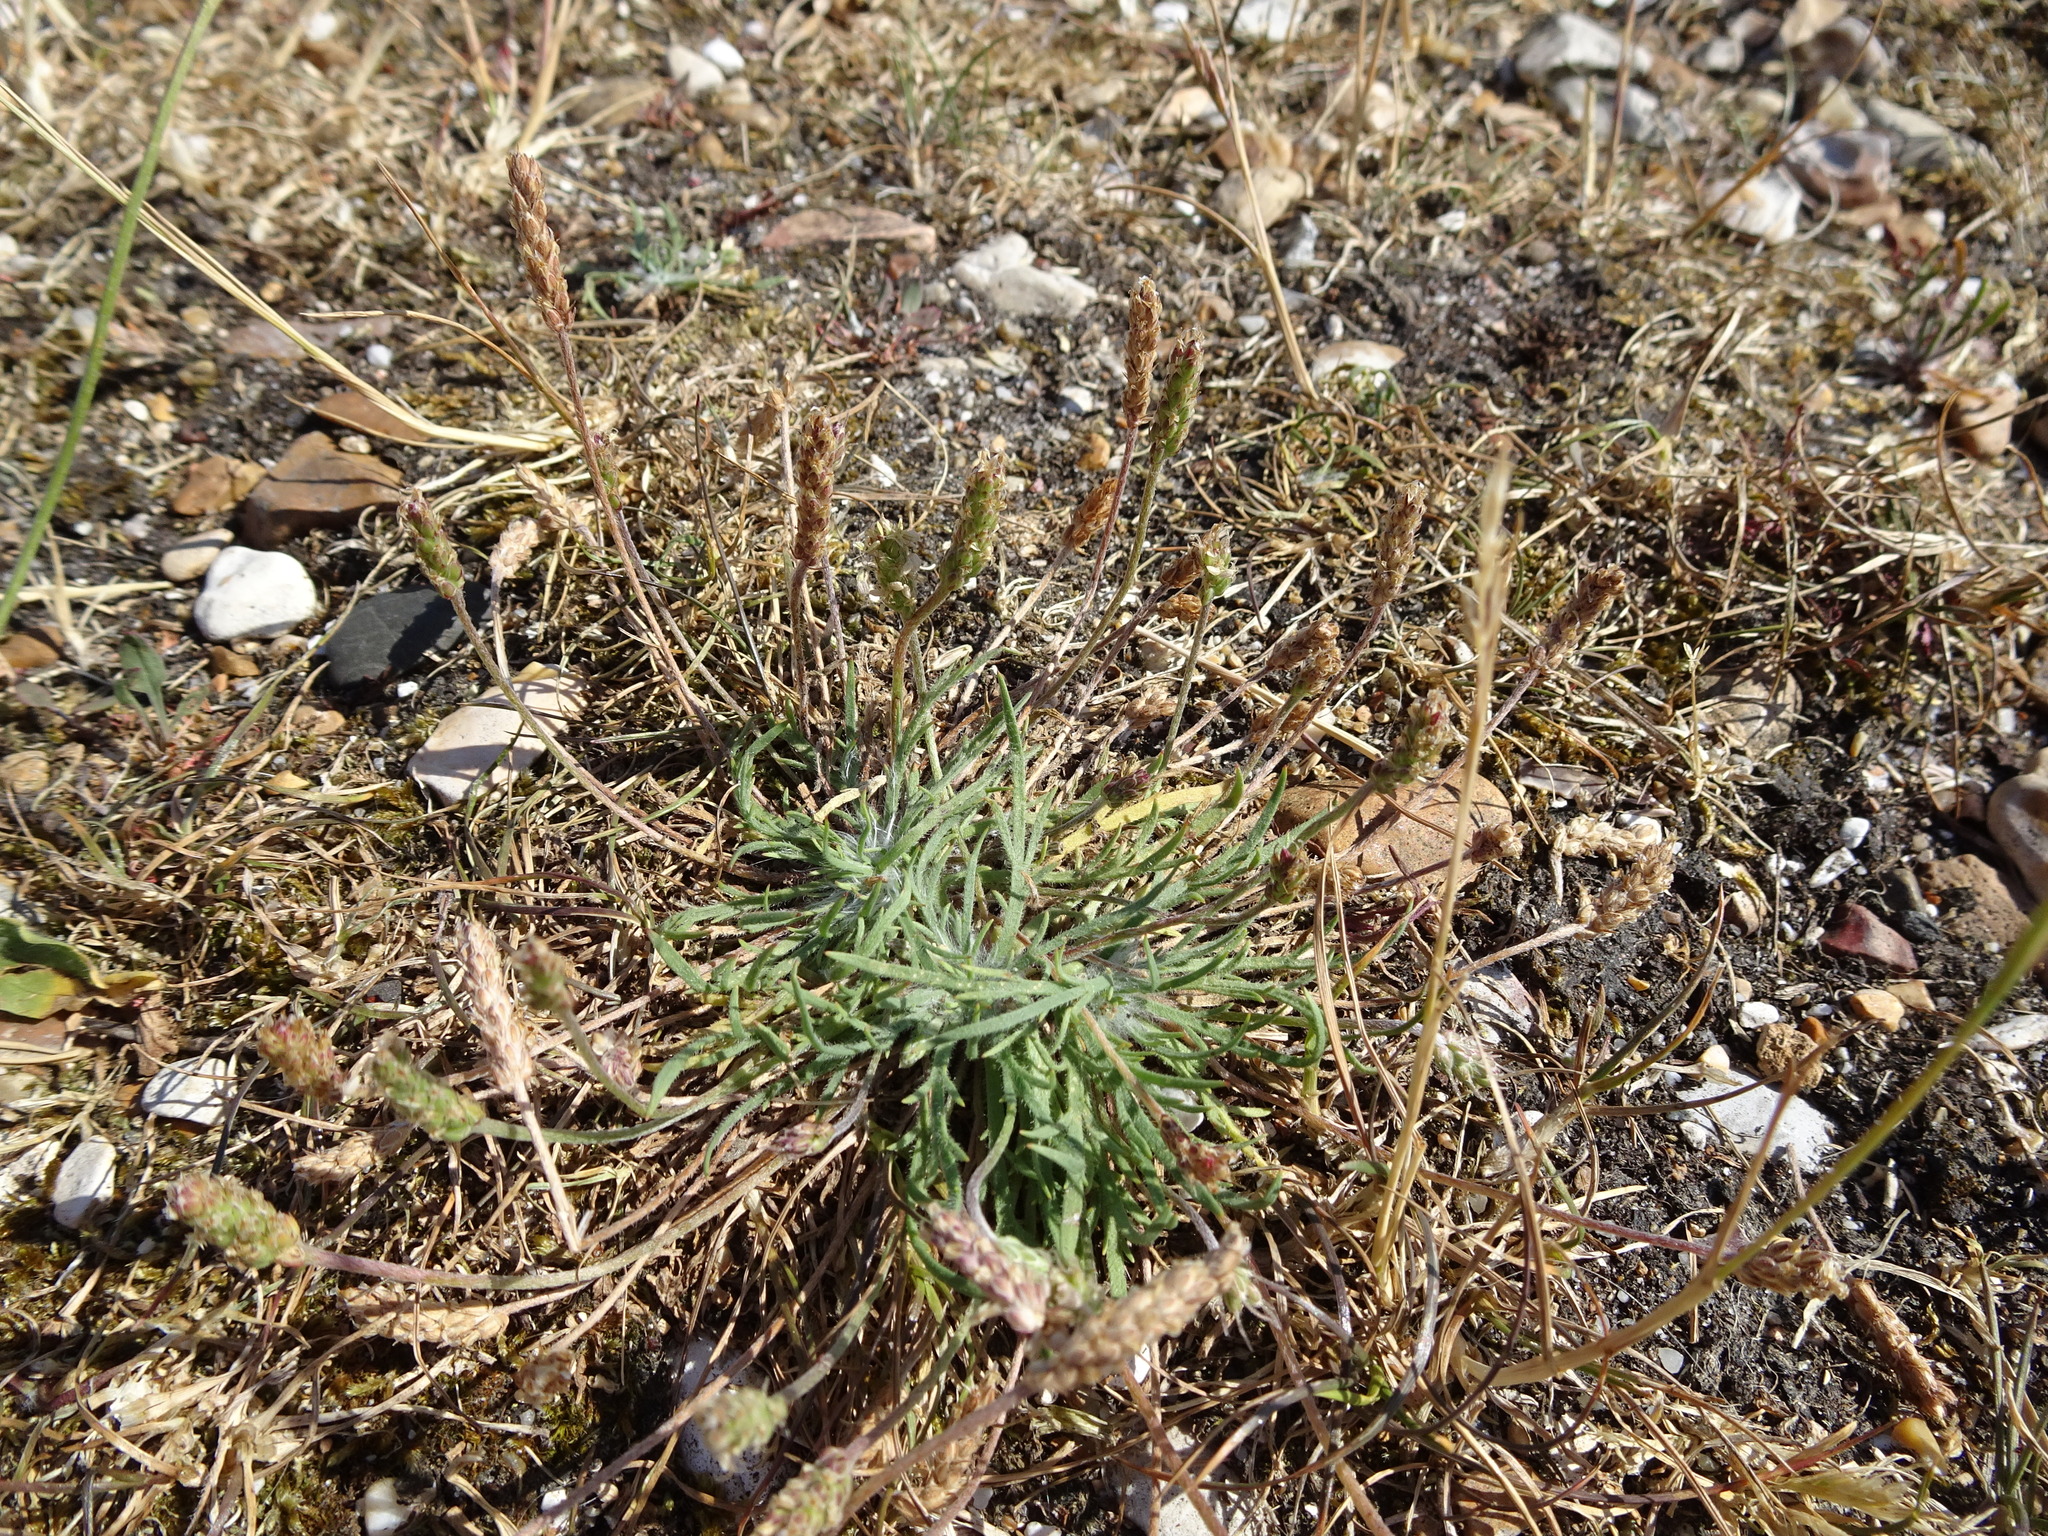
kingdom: Plantae
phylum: Tracheophyta
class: Magnoliopsida
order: Lamiales
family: Plantaginaceae
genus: Plantago
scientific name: Plantago coronopus
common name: Buck's-horn plantain
